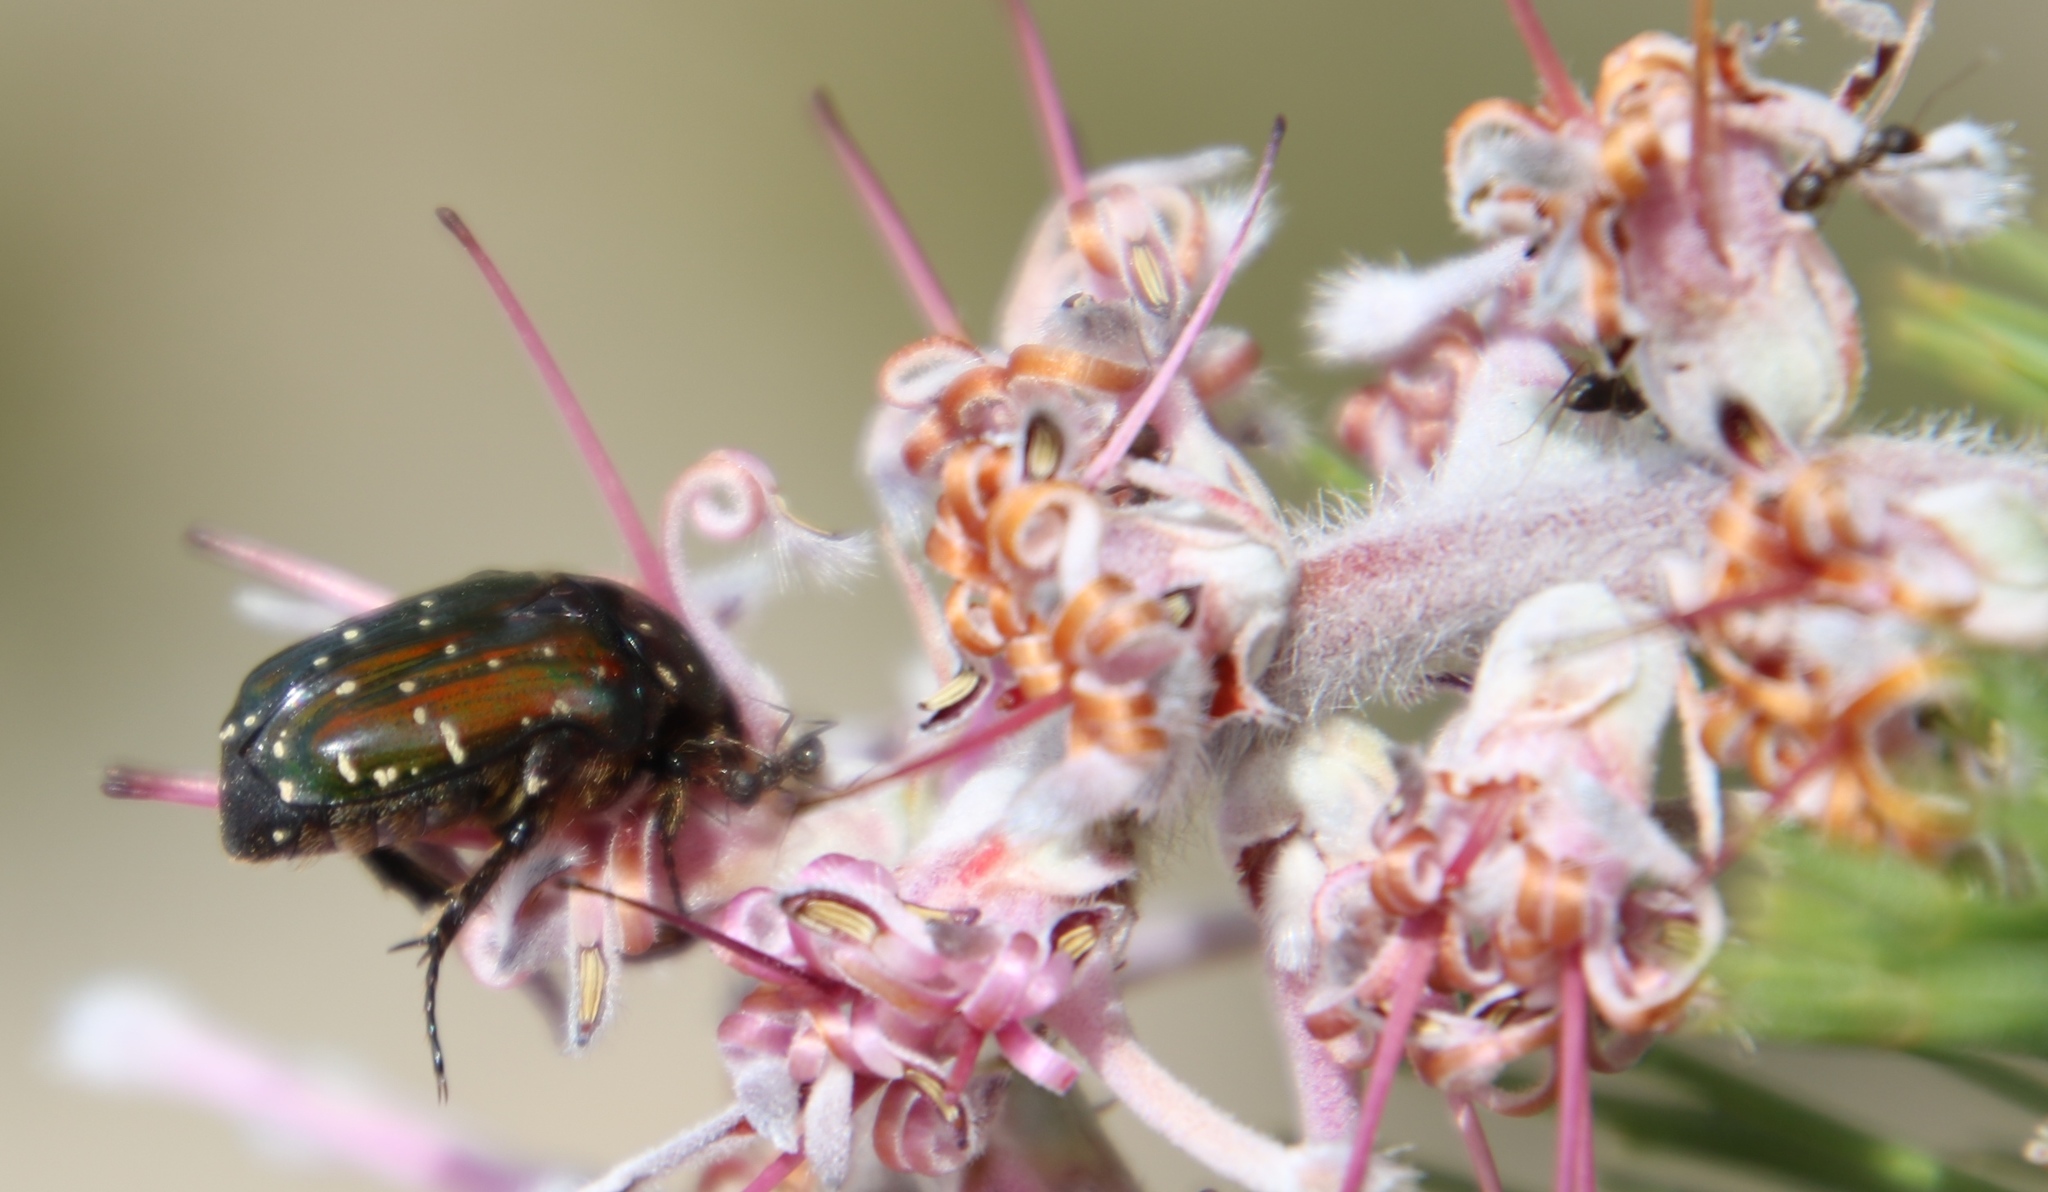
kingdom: Animalia
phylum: Arthropoda
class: Insecta
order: Hymenoptera
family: Formicidae
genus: Anoplolepis
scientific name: Anoplolepis steingroeveri
